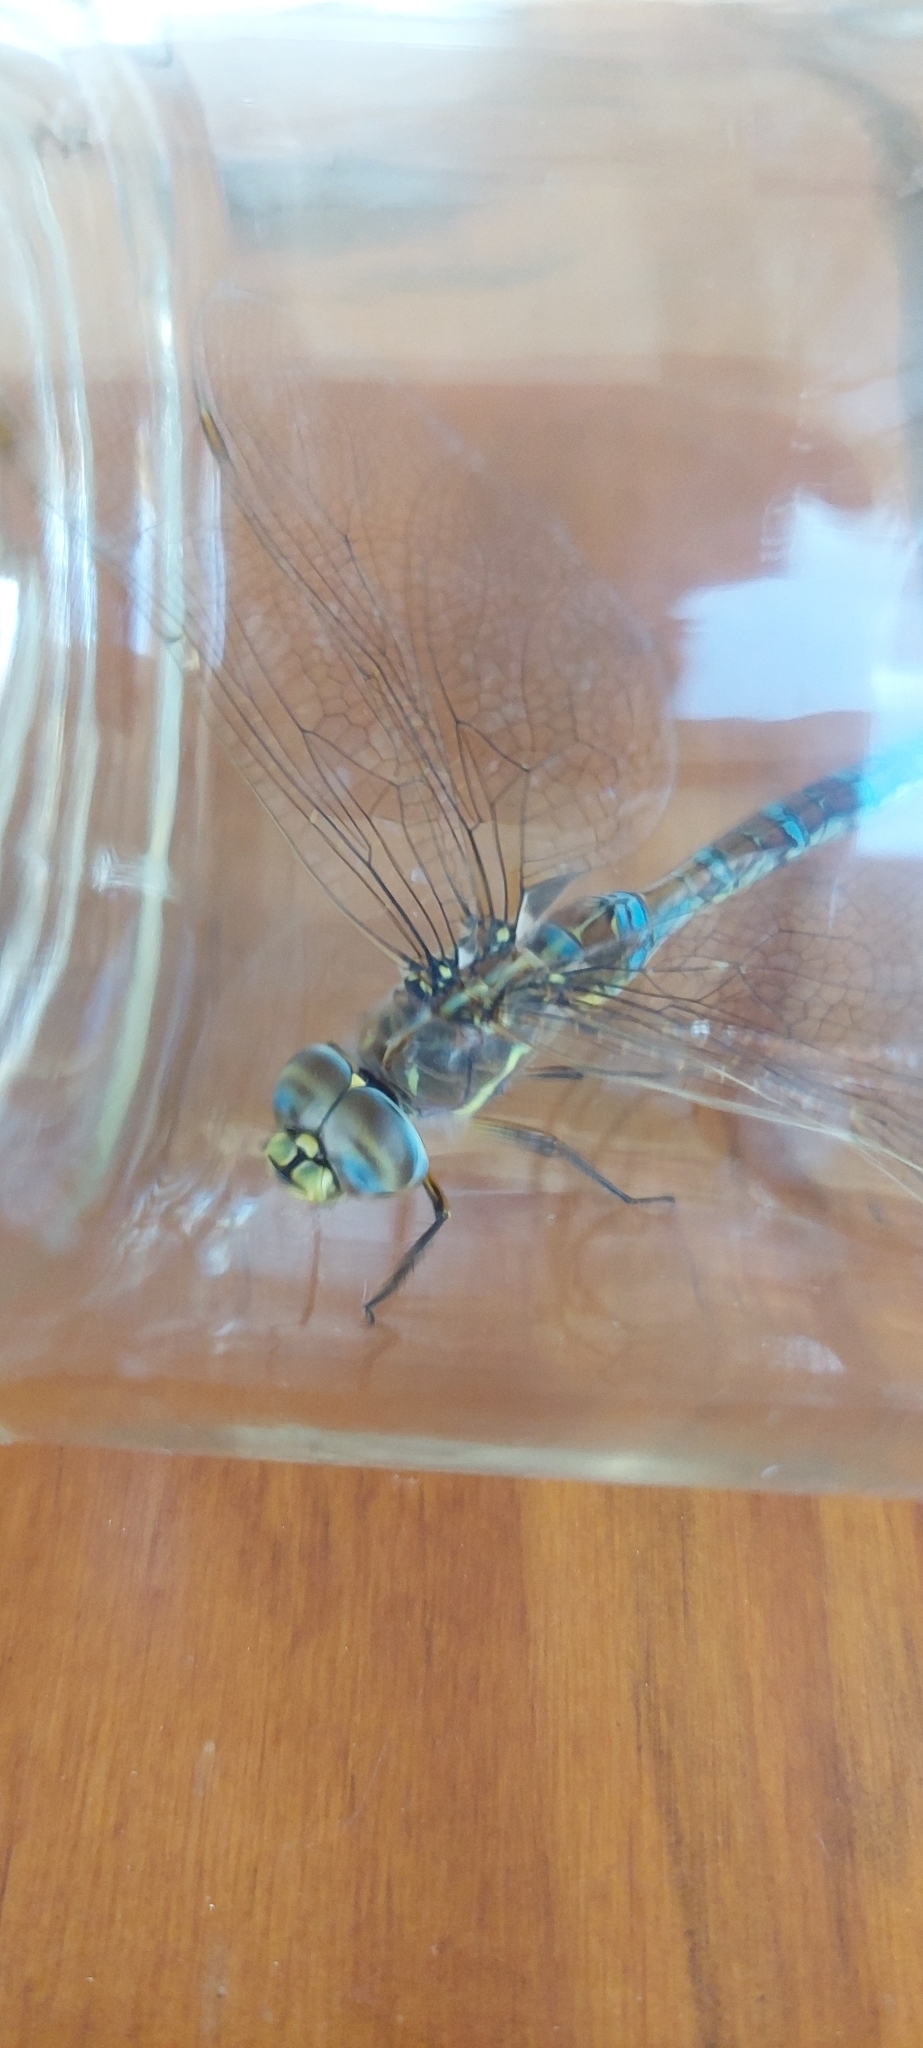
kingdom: Animalia
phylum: Arthropoda
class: Insecta
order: Odonata
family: Aeshnidae
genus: Rhionaeschna
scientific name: Rhionaeschna absoluta
